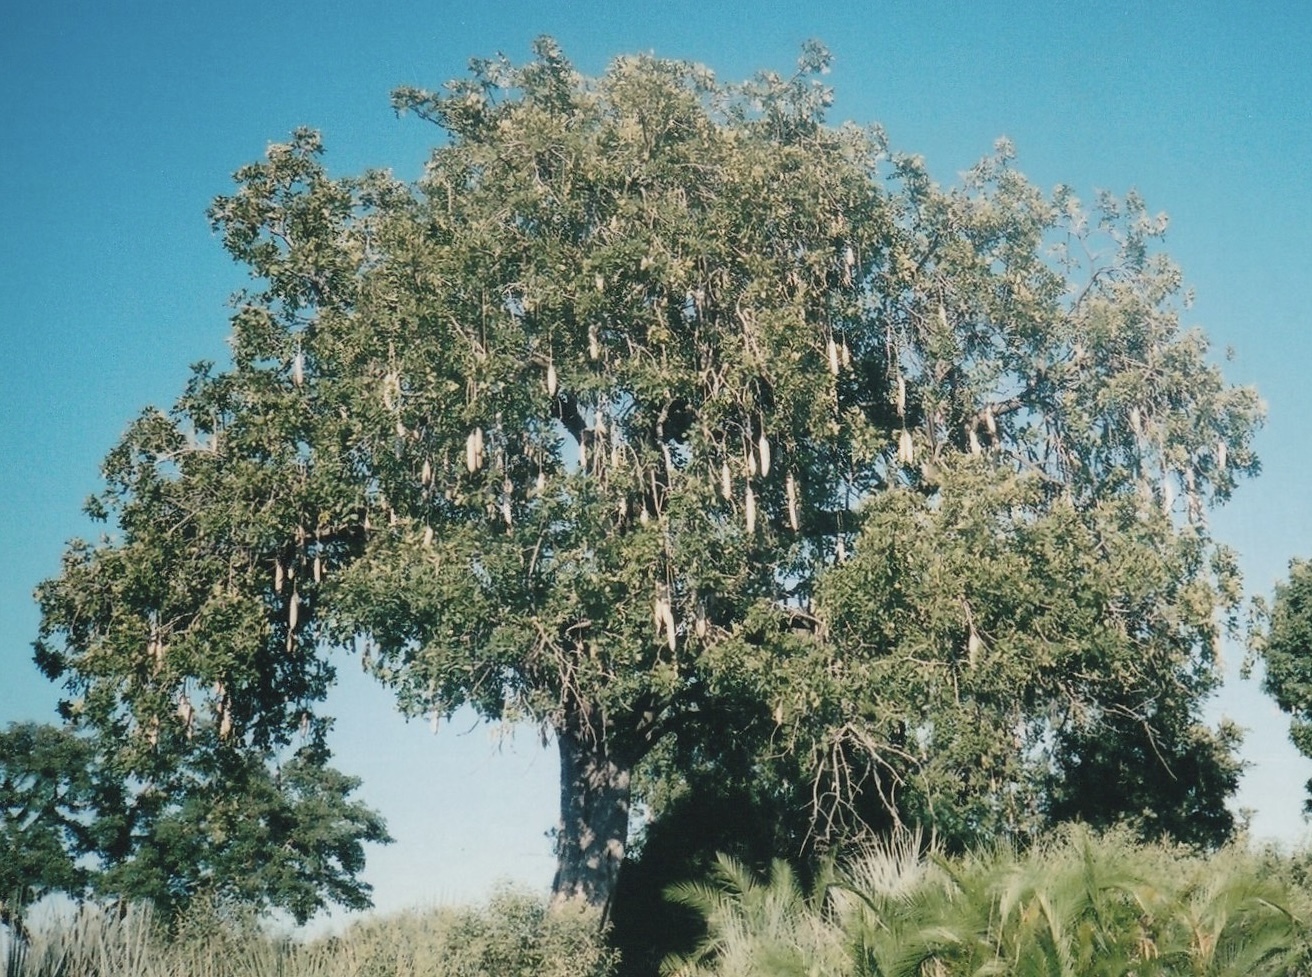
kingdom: Plantae
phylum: Tracheophyta
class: Magnoliopsida
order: Lamiales
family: Bignoniaceae
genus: Kigelia
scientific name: Kigelia africana
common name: Sausage tree
